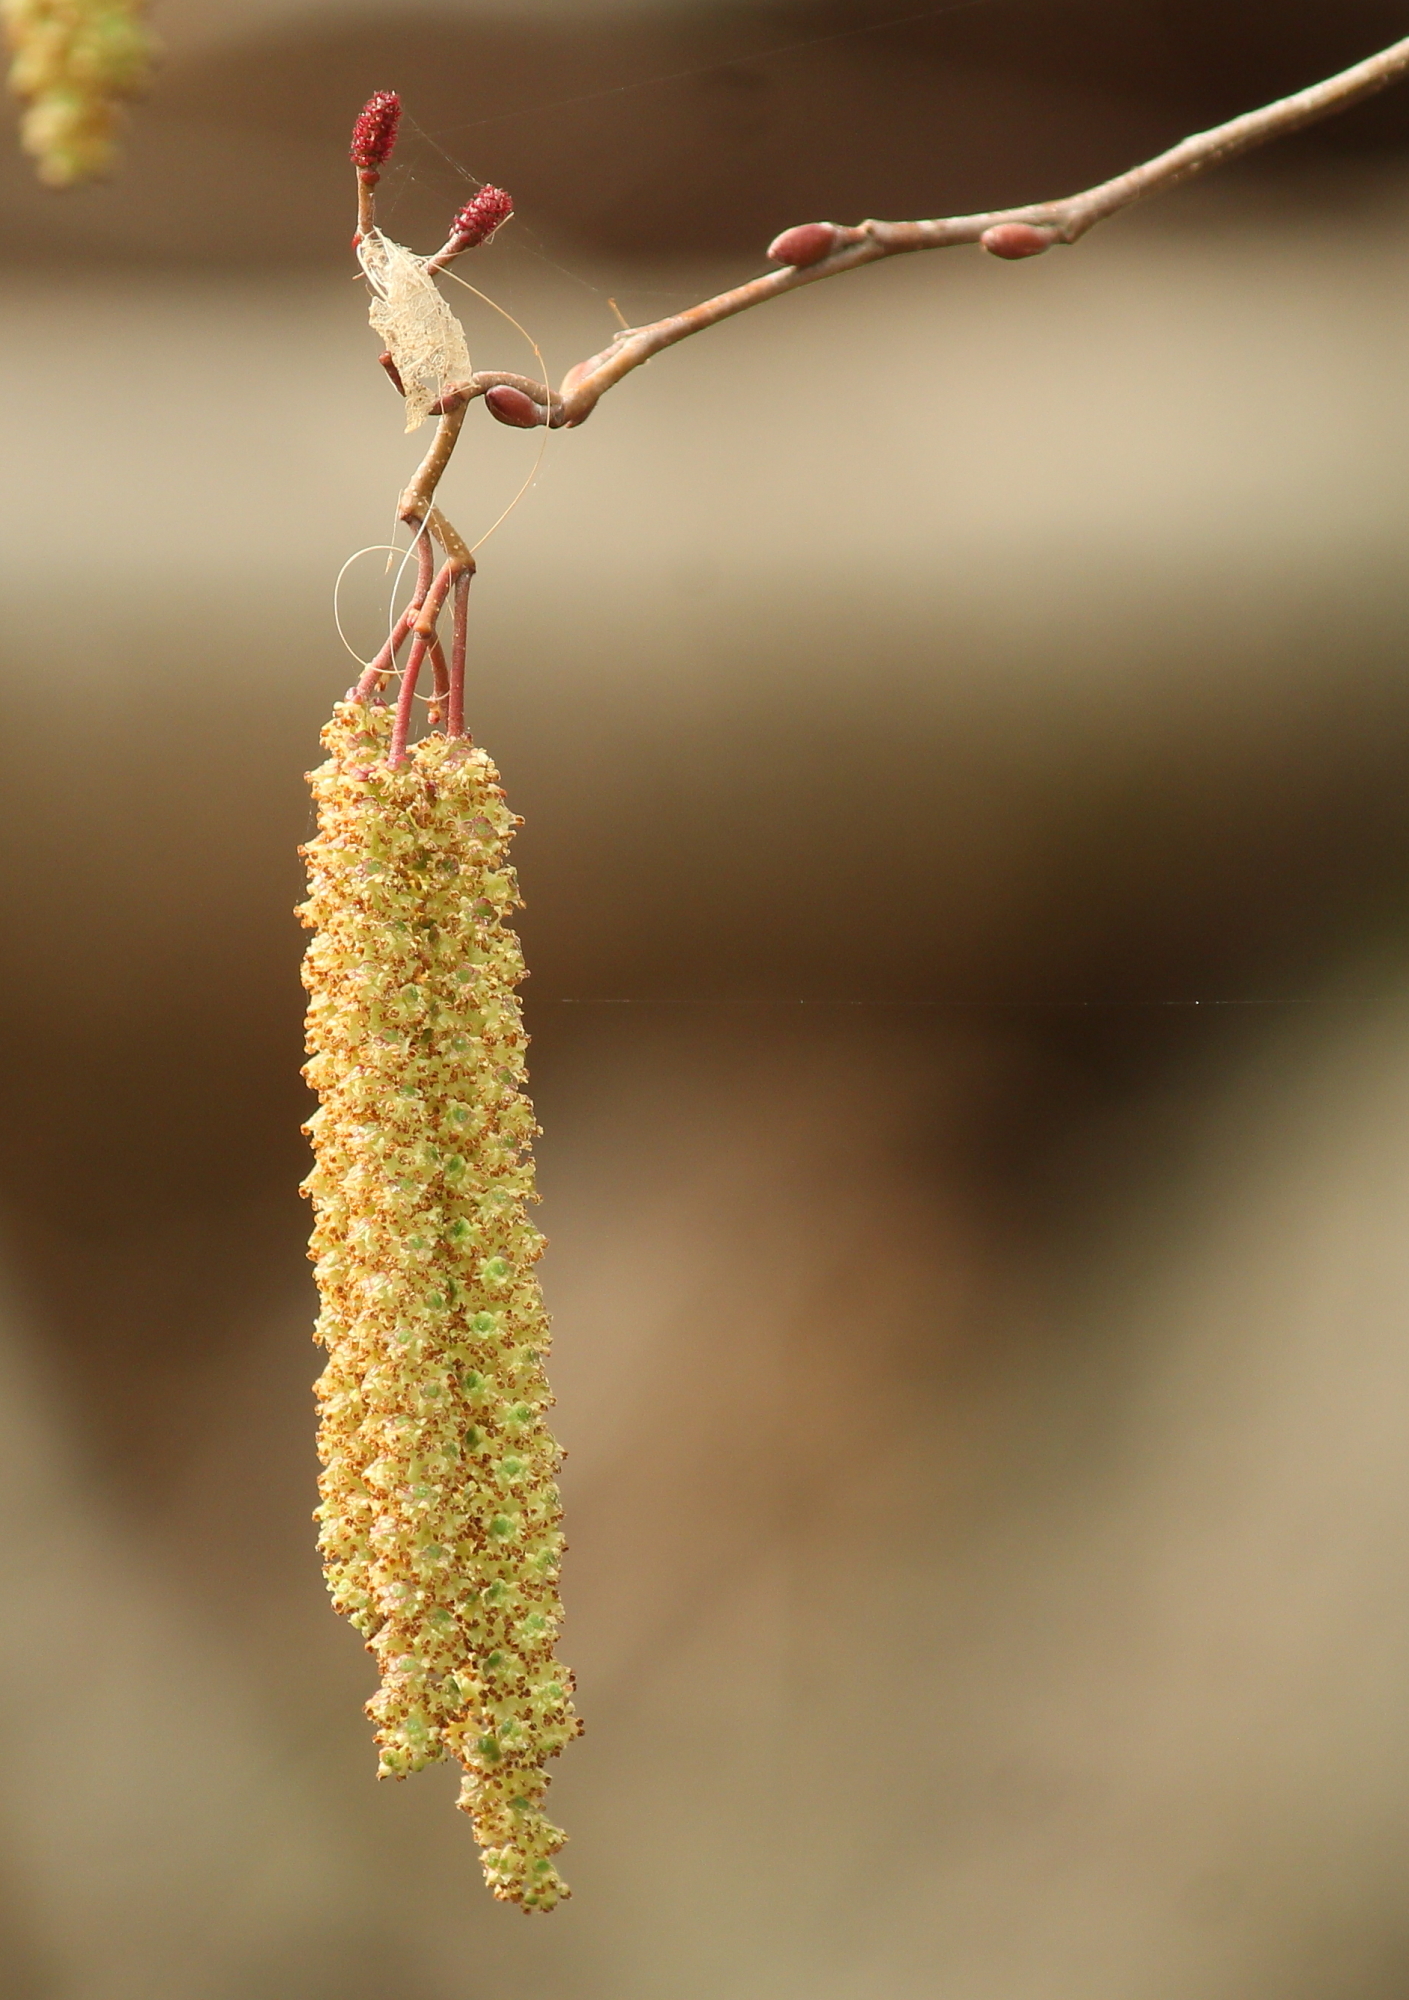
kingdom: Plantae
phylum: Tracheophyta
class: Magnoliopsida
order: Fagales
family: Betulaceae
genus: Alnus
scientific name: Alnus serrulata
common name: Hazel alder
